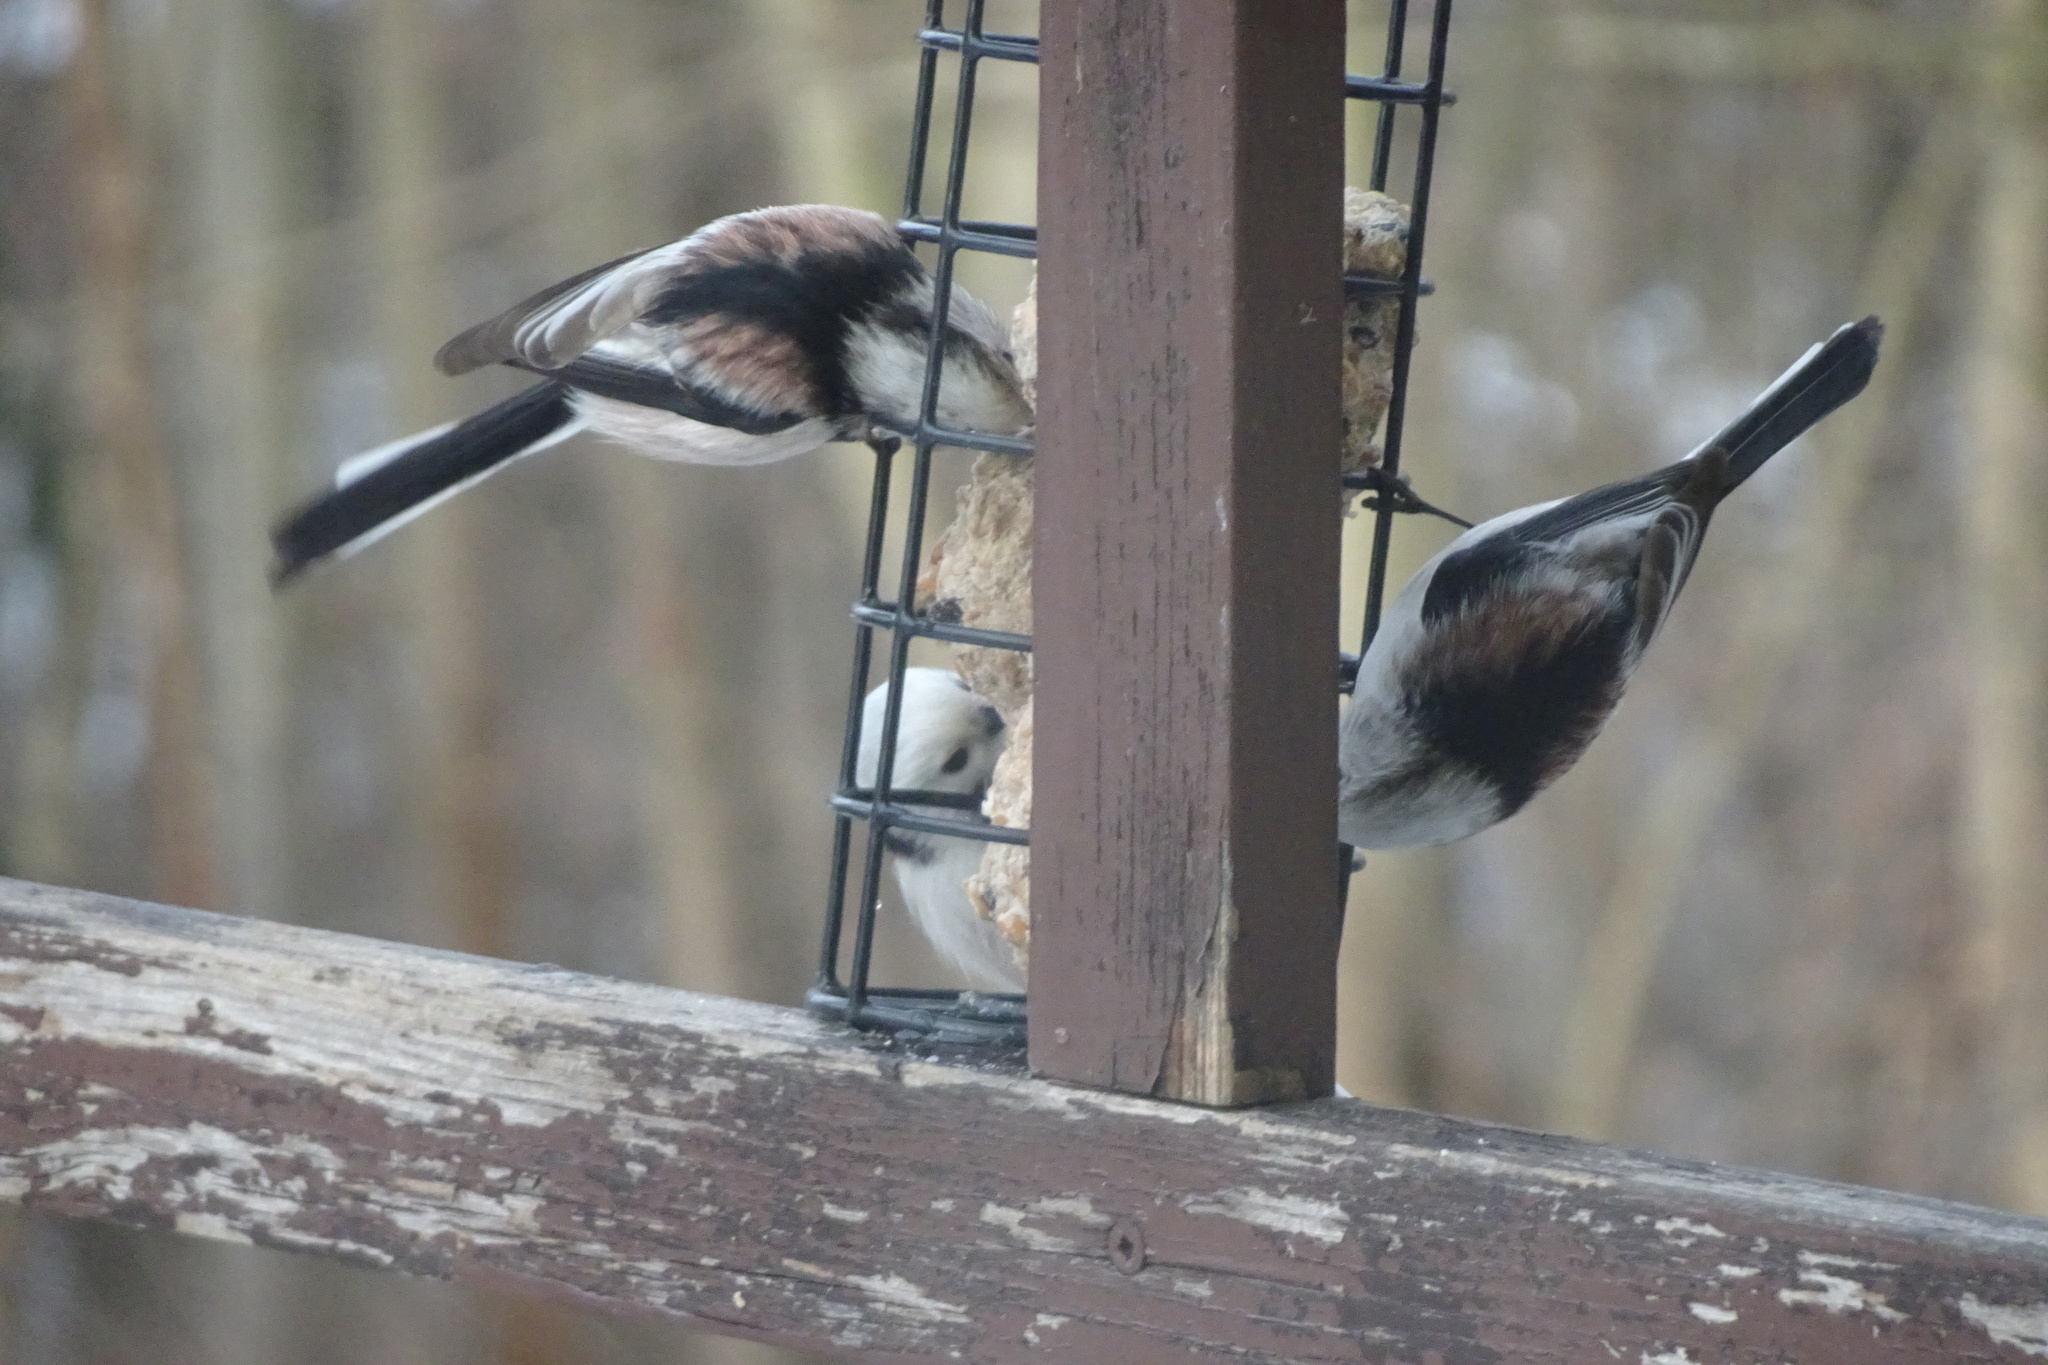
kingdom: Animalia
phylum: Chordata
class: Aves
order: Passeriformes
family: Aegithalidae
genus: Aegithalos
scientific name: Aegithalos caudatus
